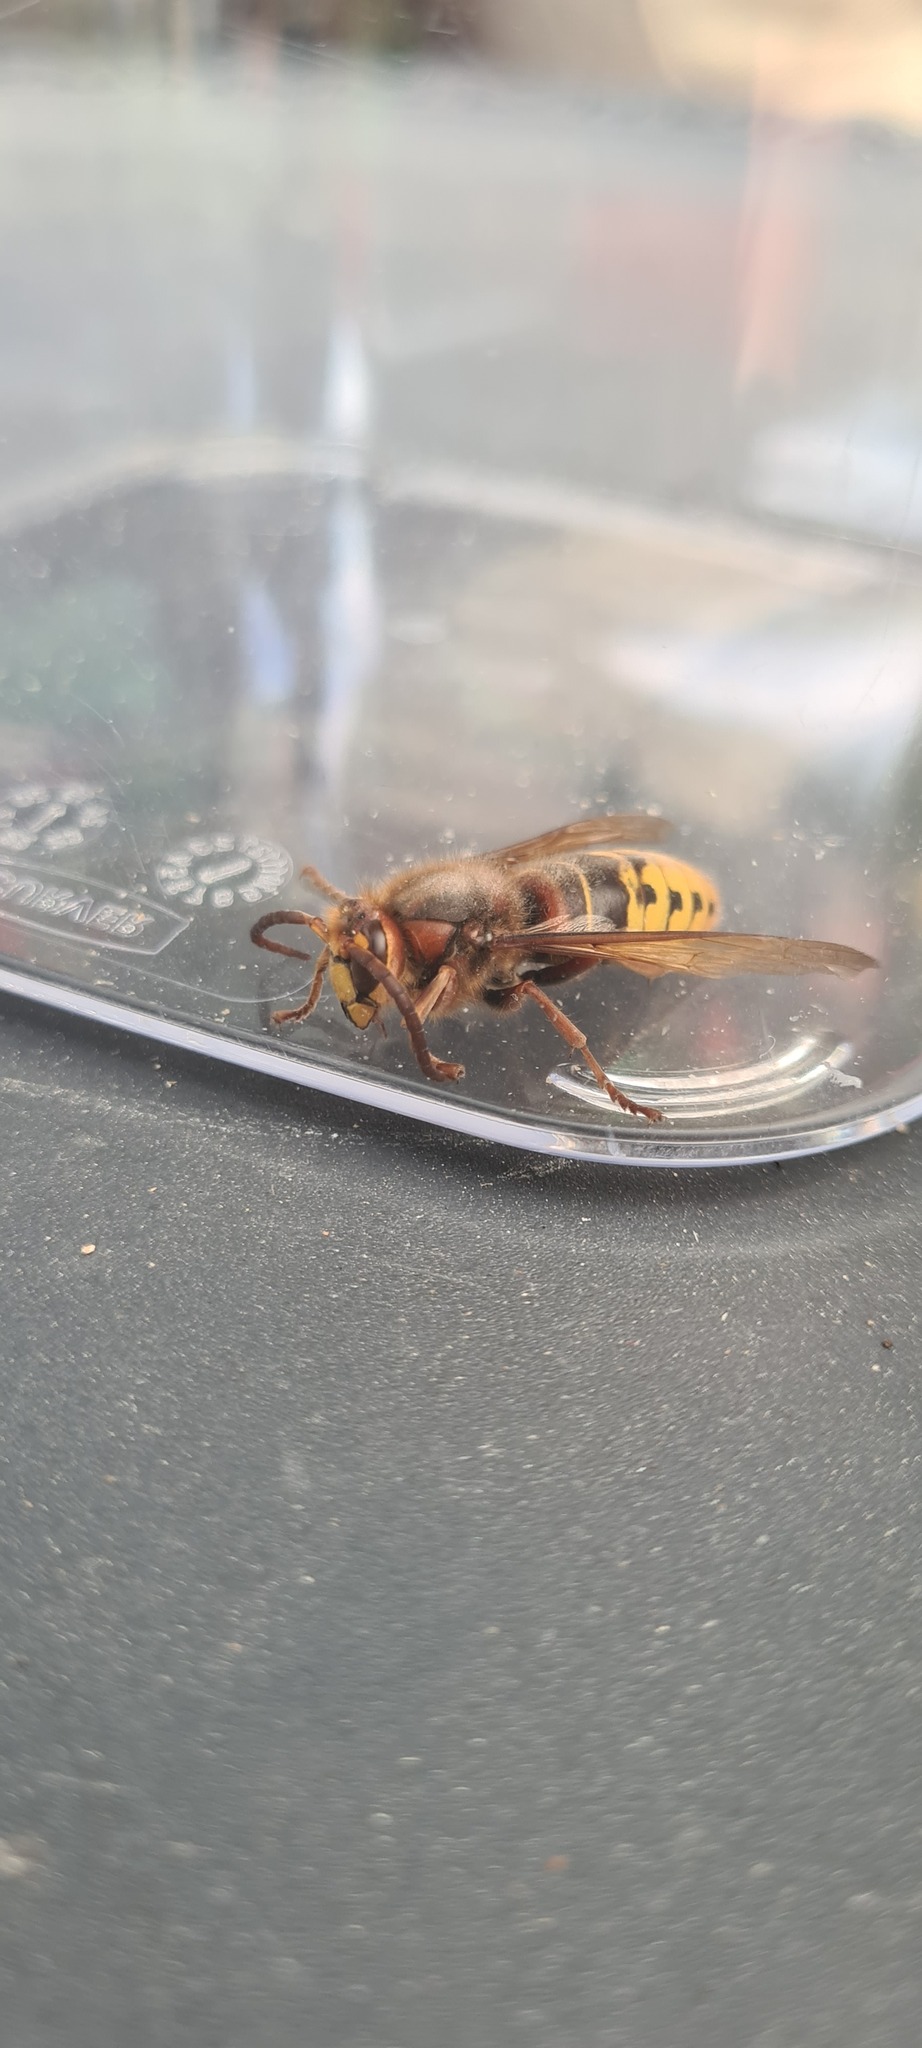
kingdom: Animalia
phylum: Arthropoda
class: Insecta
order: Hymenoptera
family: Vespidae
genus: Vespa
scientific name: Vespa crabro
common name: Hornet
